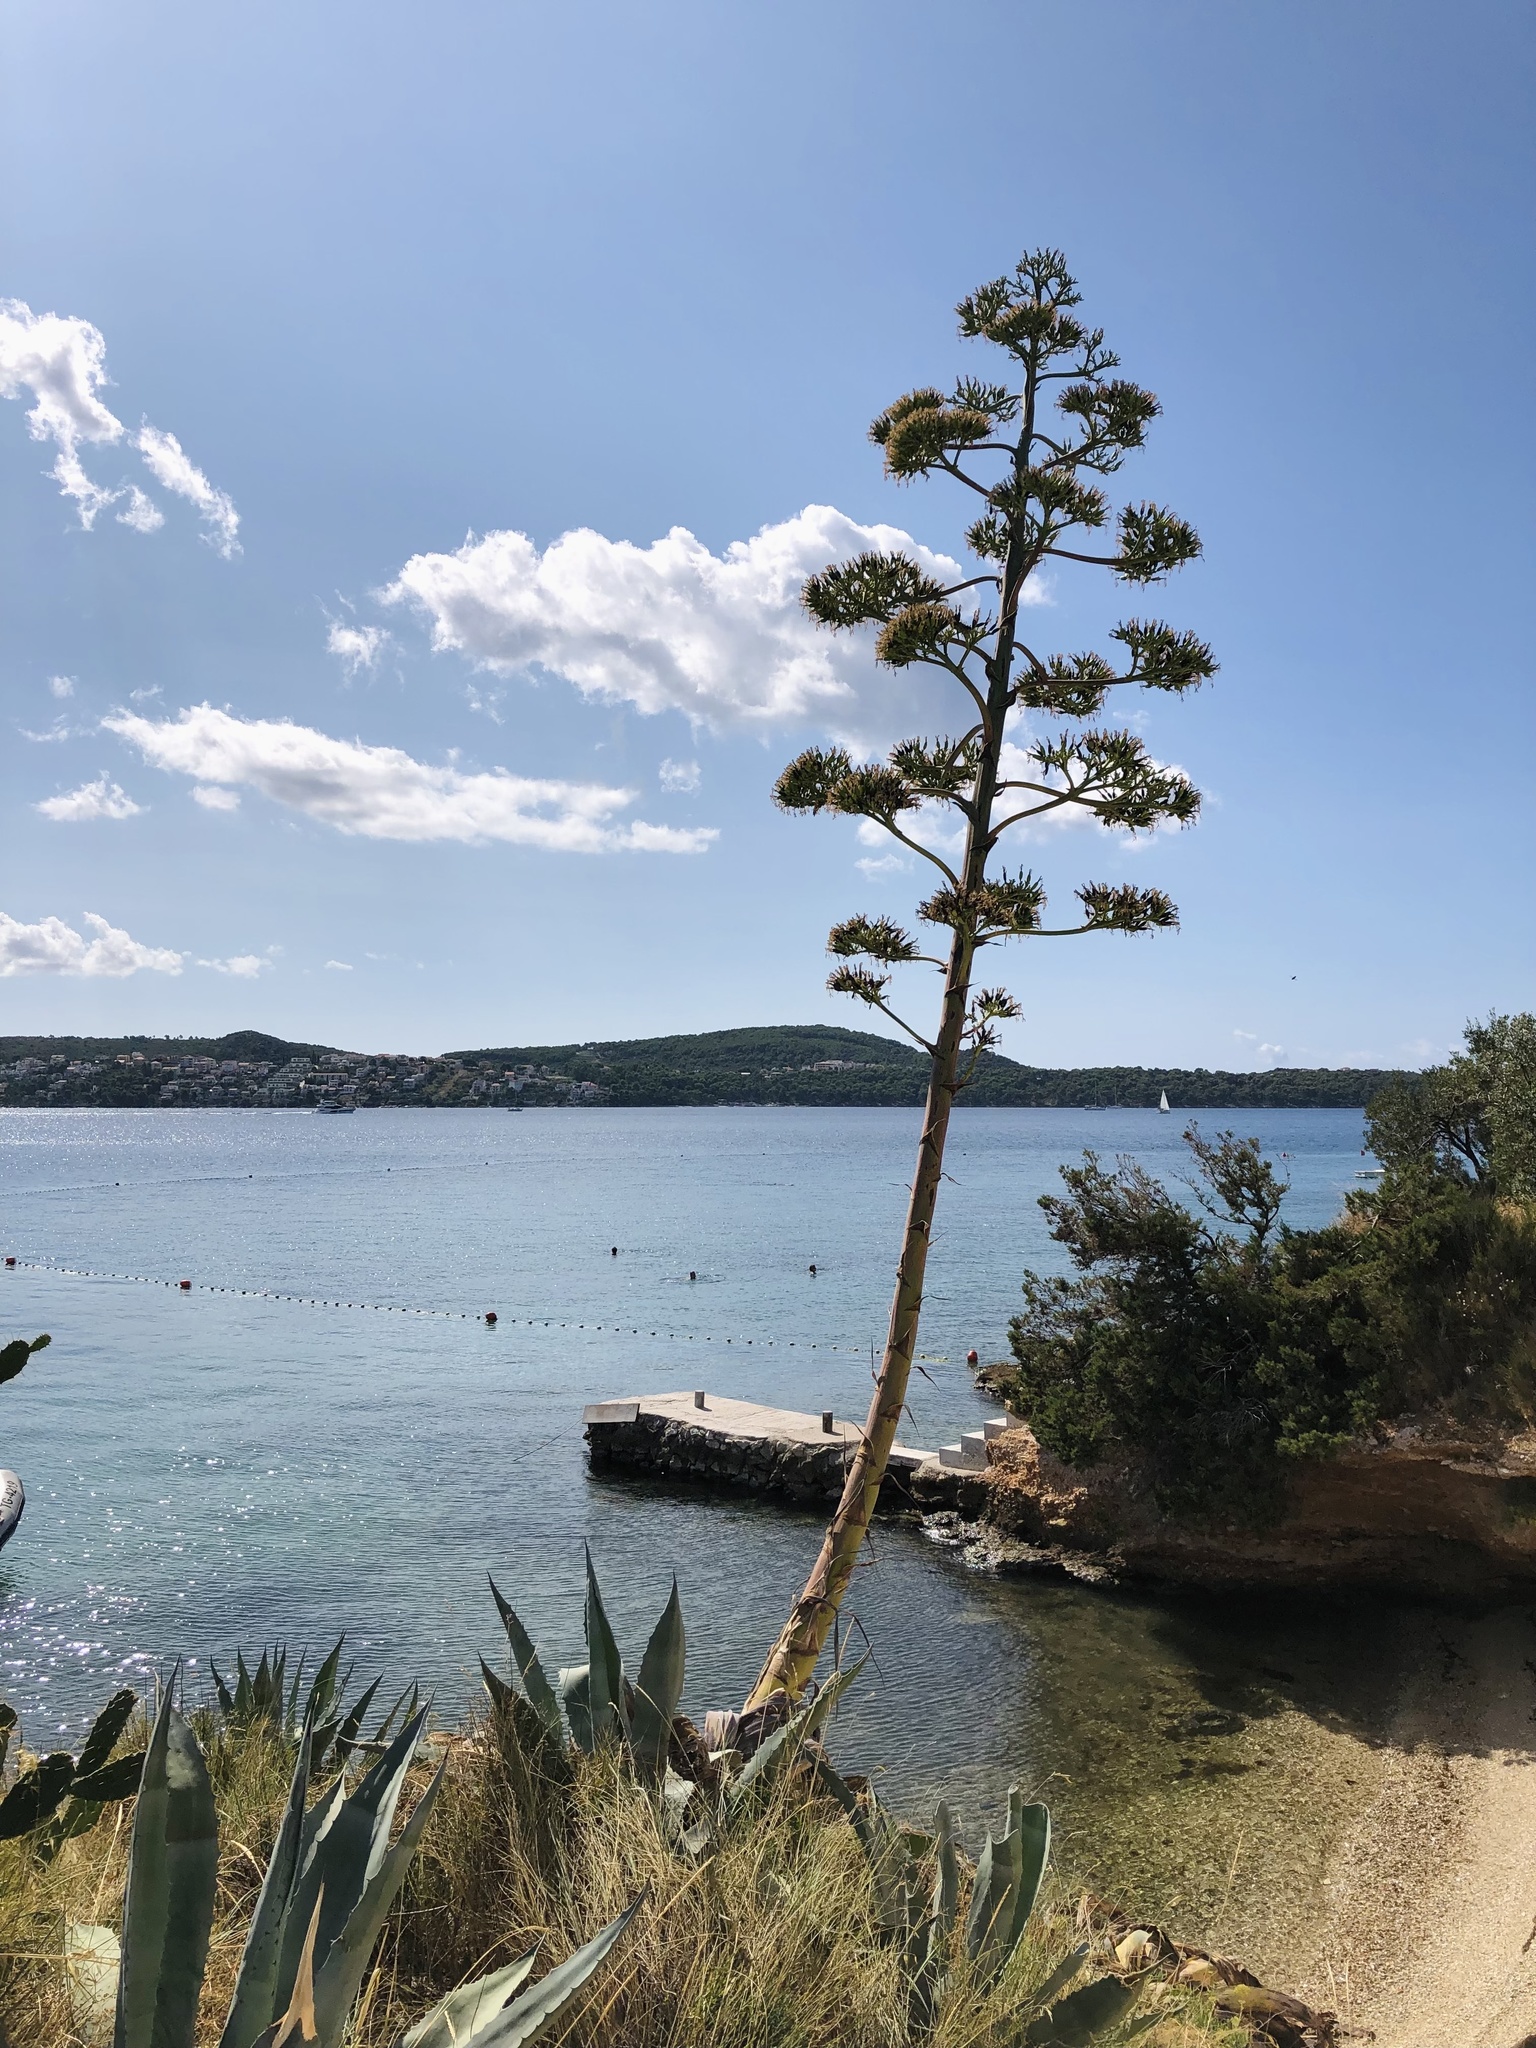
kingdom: Plantae
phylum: Tracheophyta
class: Liliopsida
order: Asparagales
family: Asparagaceae
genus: Agave
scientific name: Agave americana
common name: Centuryplant
